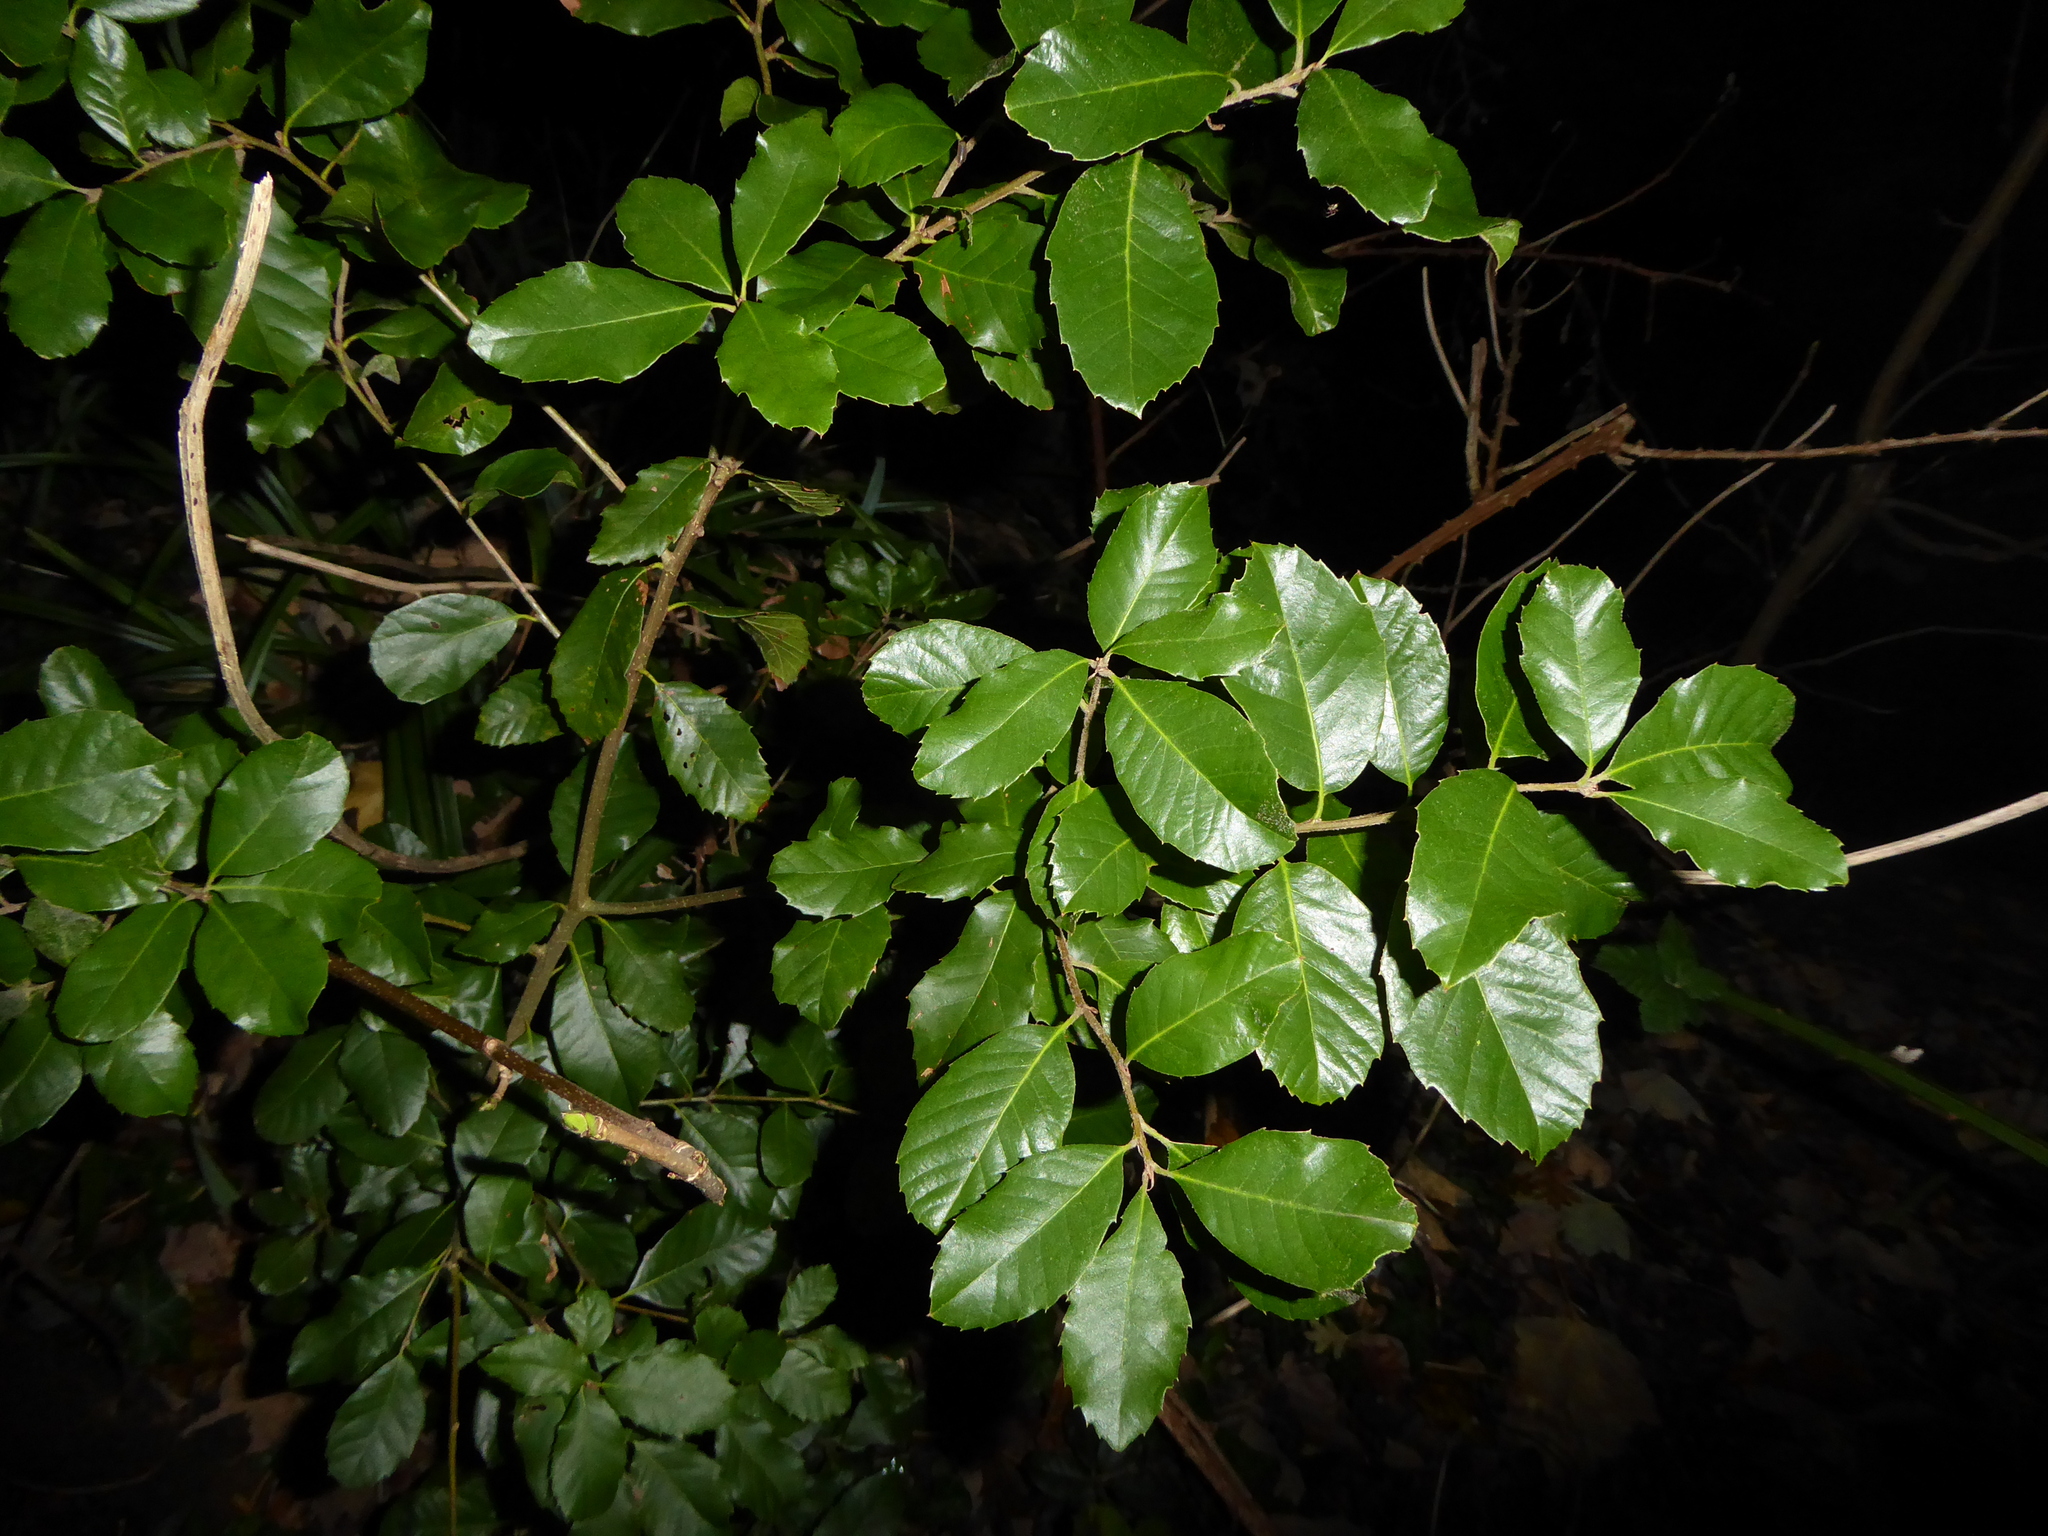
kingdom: Plantae
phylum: Tracheophyta
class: Magnoliopsida
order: Fagales
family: Fagaceae
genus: Quercus
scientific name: Quercus ilex
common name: Evergreen oak
